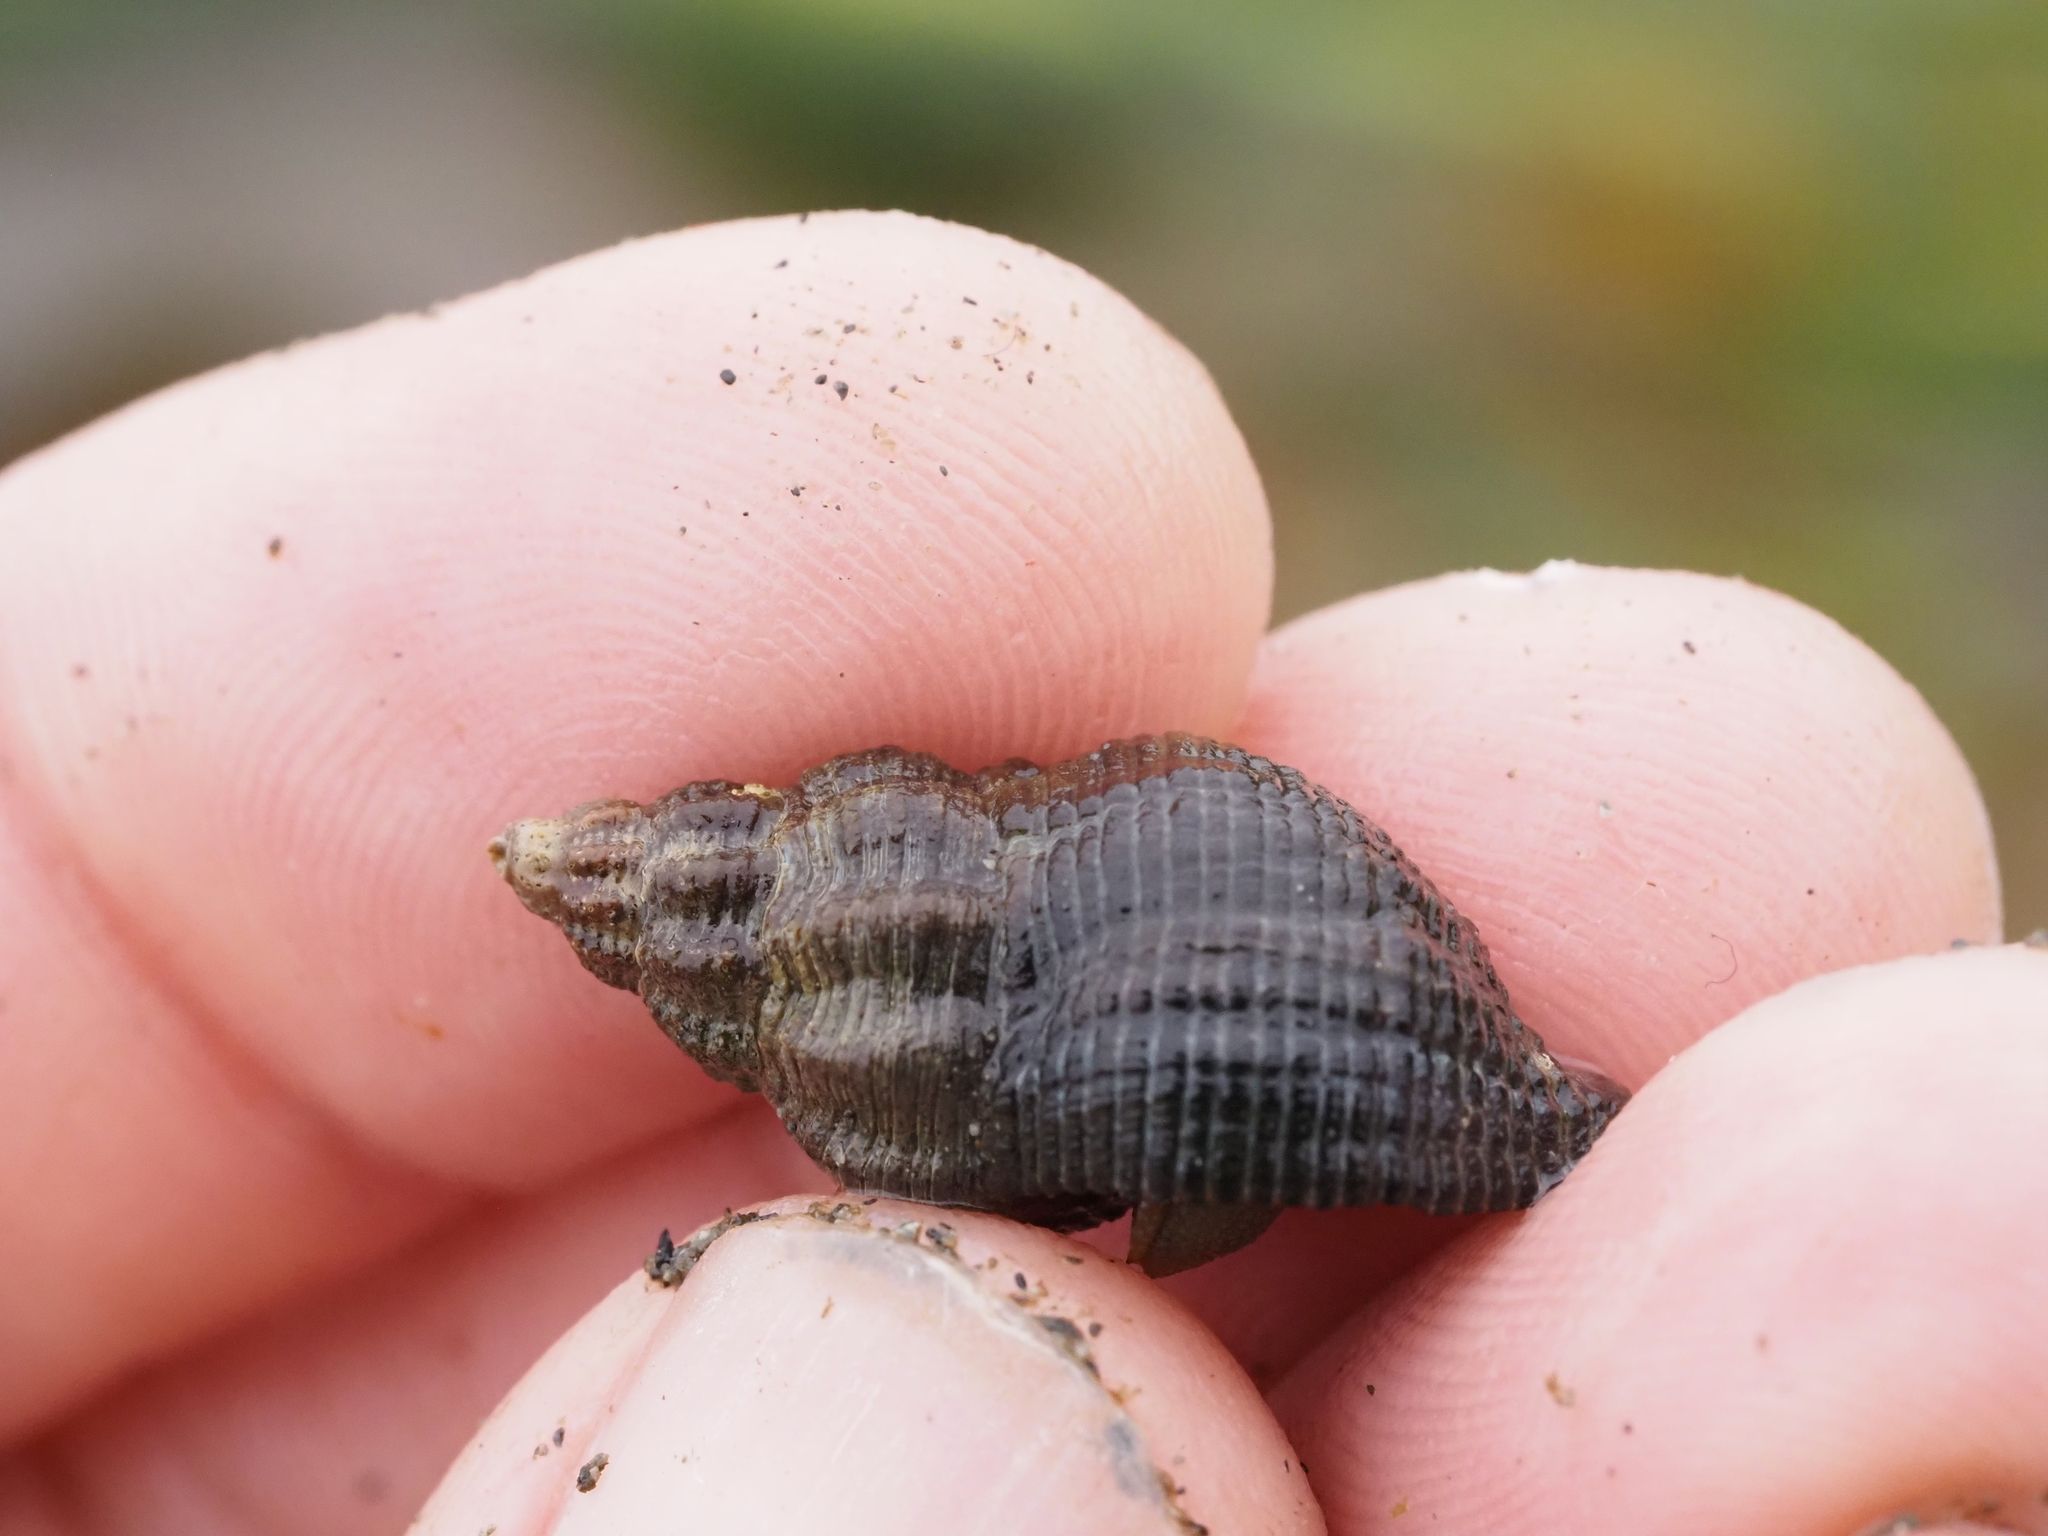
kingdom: Animalia
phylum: Mollusca
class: Gastropoda
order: Neogastropoda
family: Tudiclidae
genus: Lirabuccinum
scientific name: Lirabuccinum dirum
